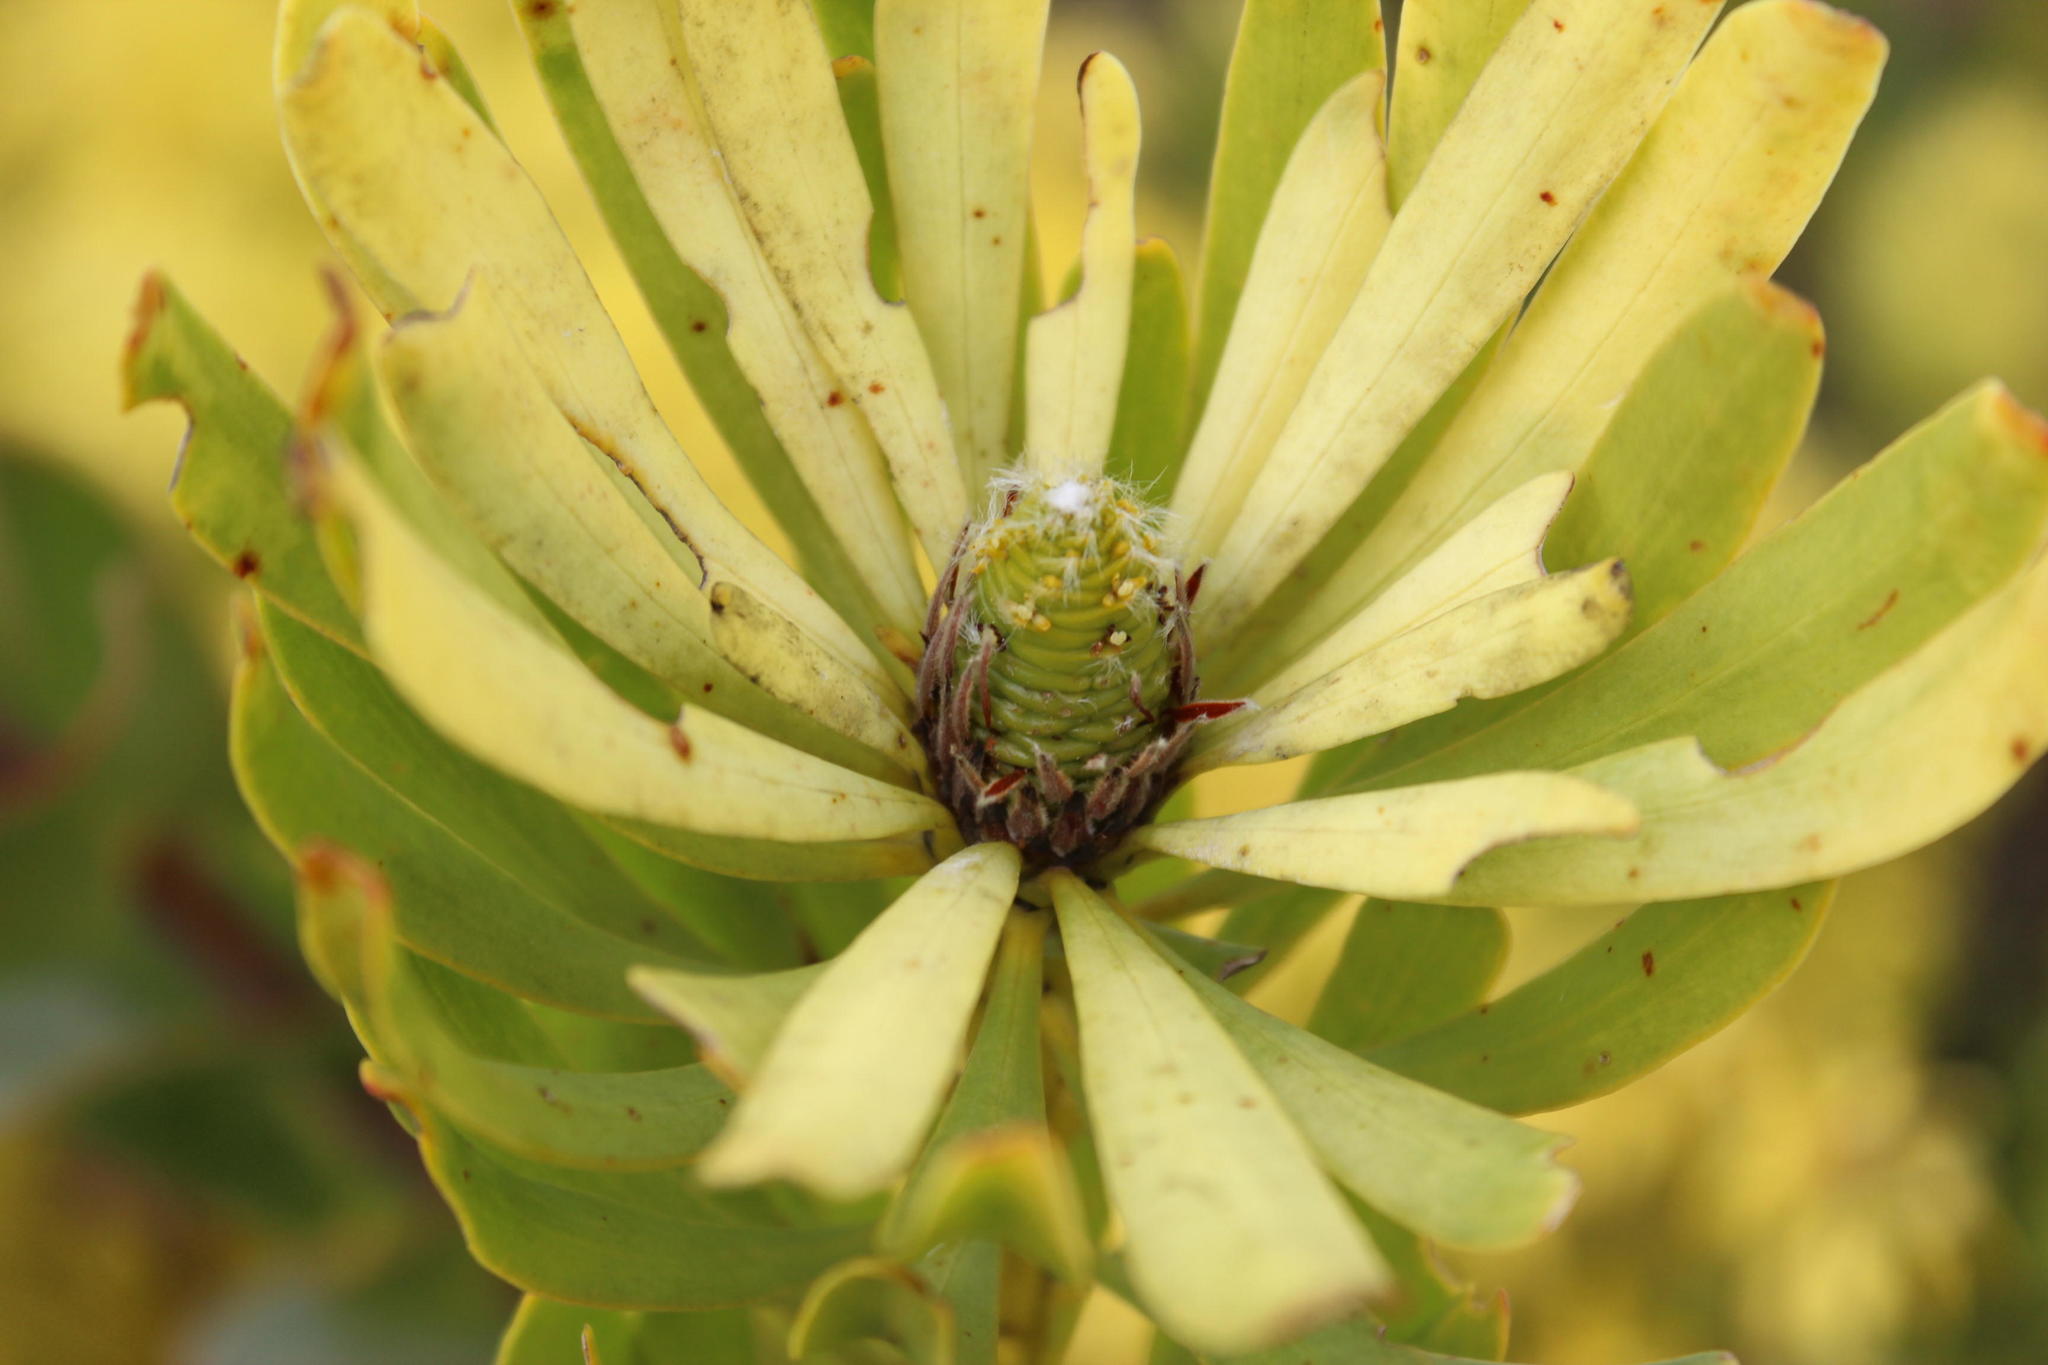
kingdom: Plantae
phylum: Tracheophyta
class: Magnoliopsida
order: Proteales
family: Proteaceae
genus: Leucadendron
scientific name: Leucadendron platyspermum
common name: Plate-seed conebush
